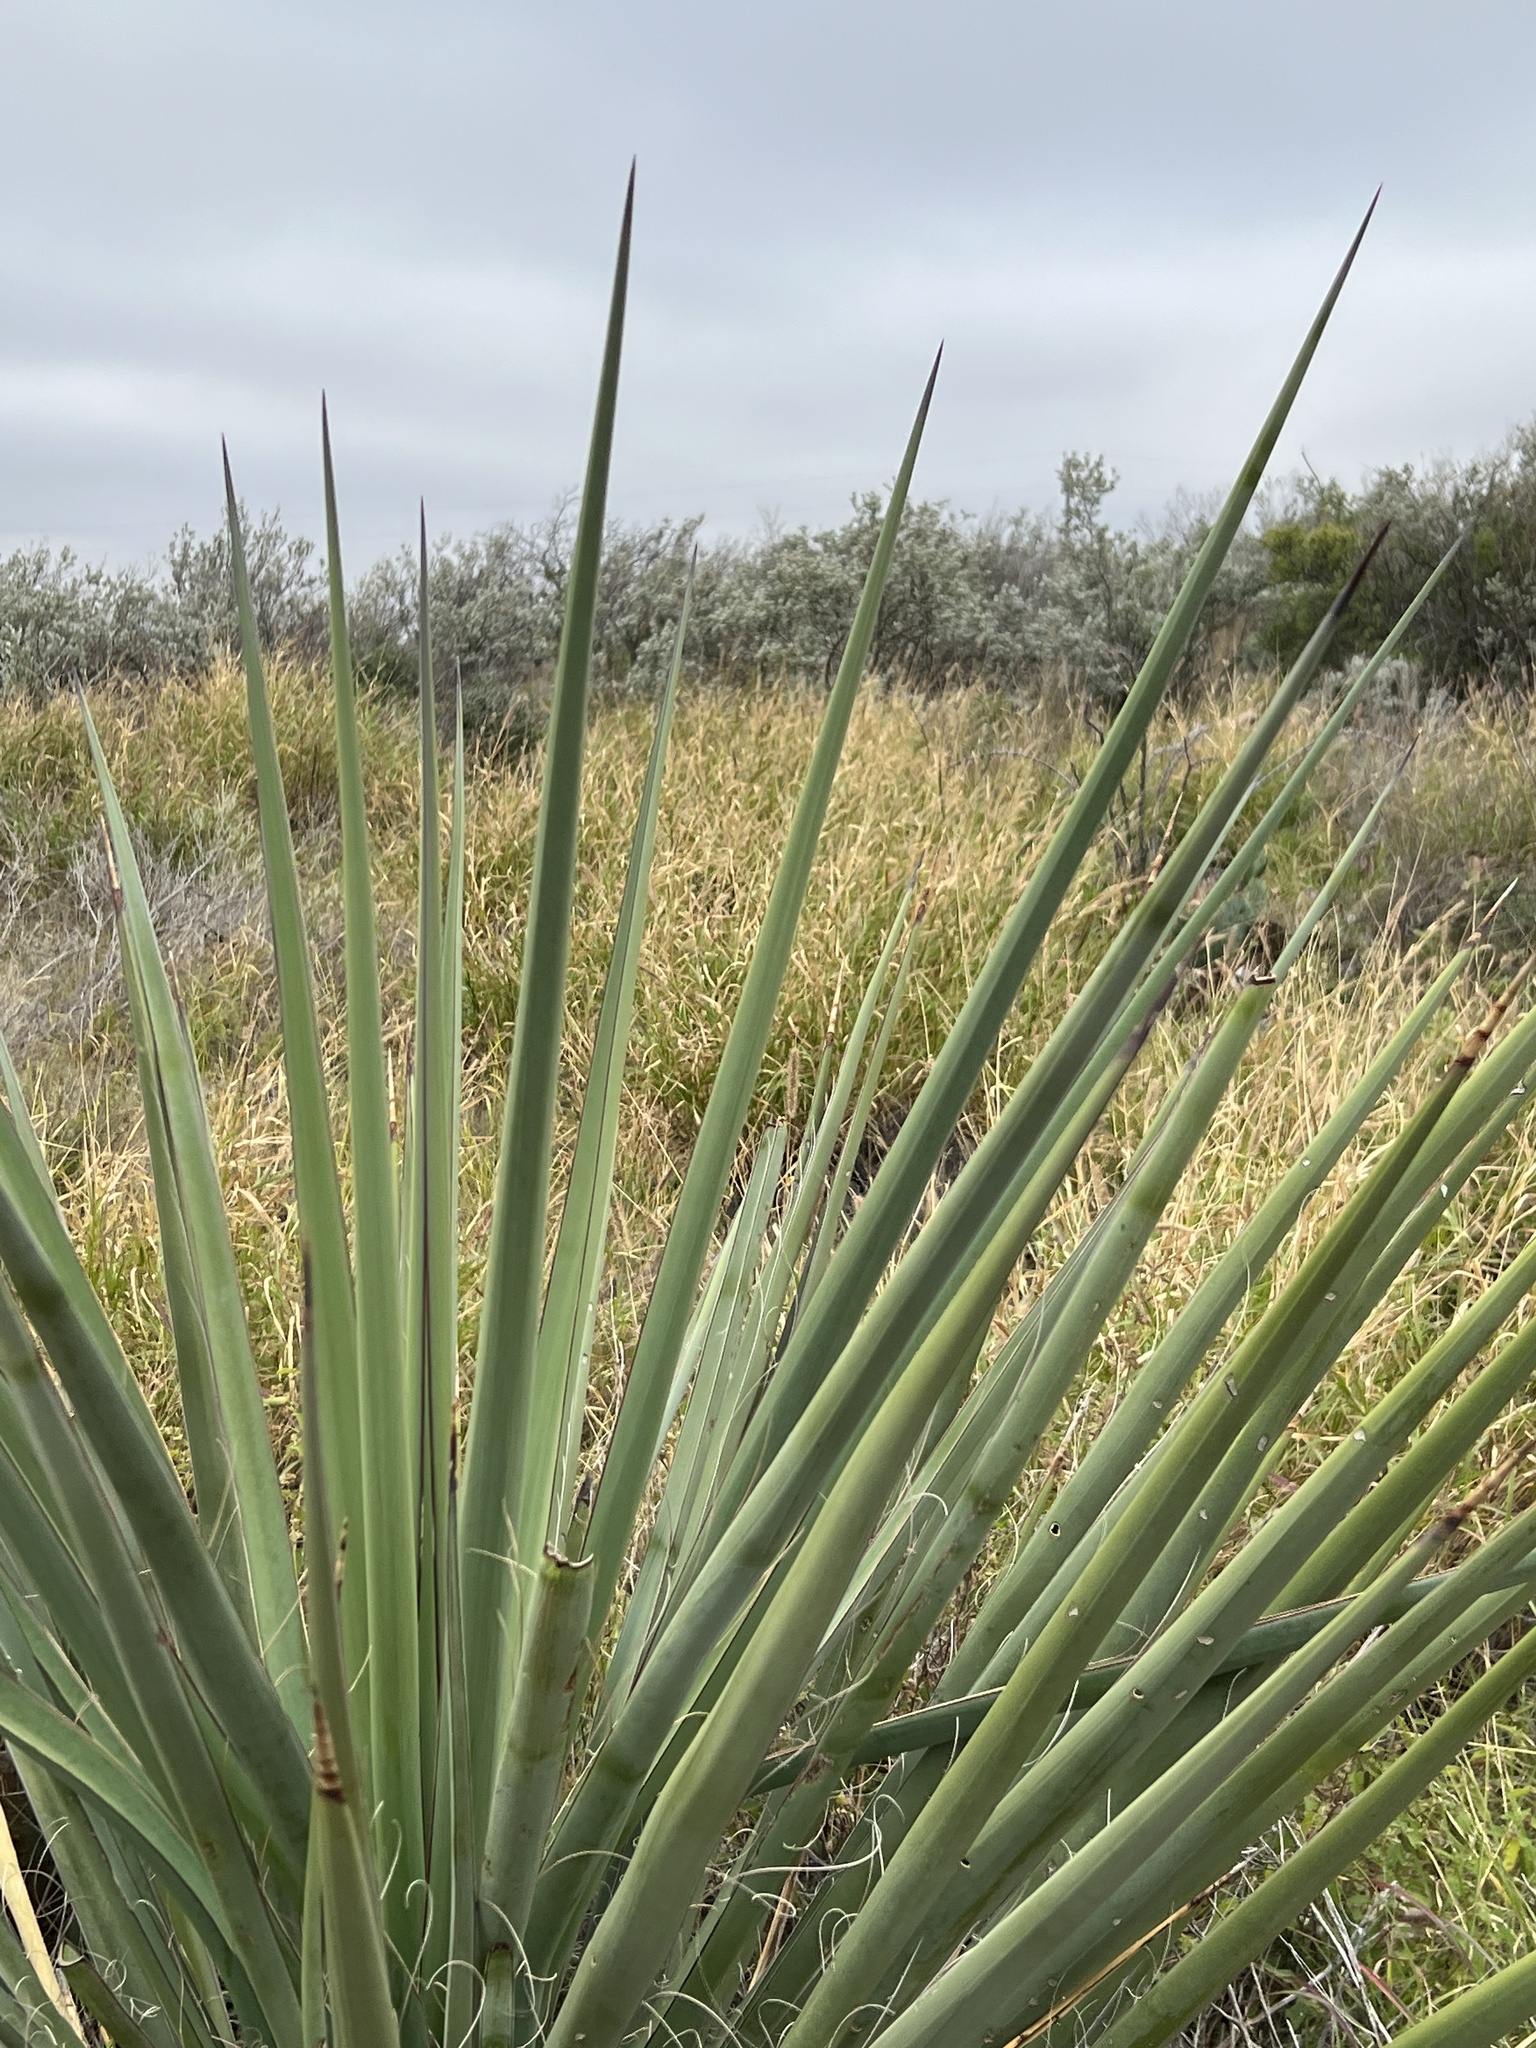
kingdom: Plantae
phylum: Tracheophyta
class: Liliopsida
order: Asparagales
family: Asparagaceae
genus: Yucca
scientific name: Yucca treculiana
